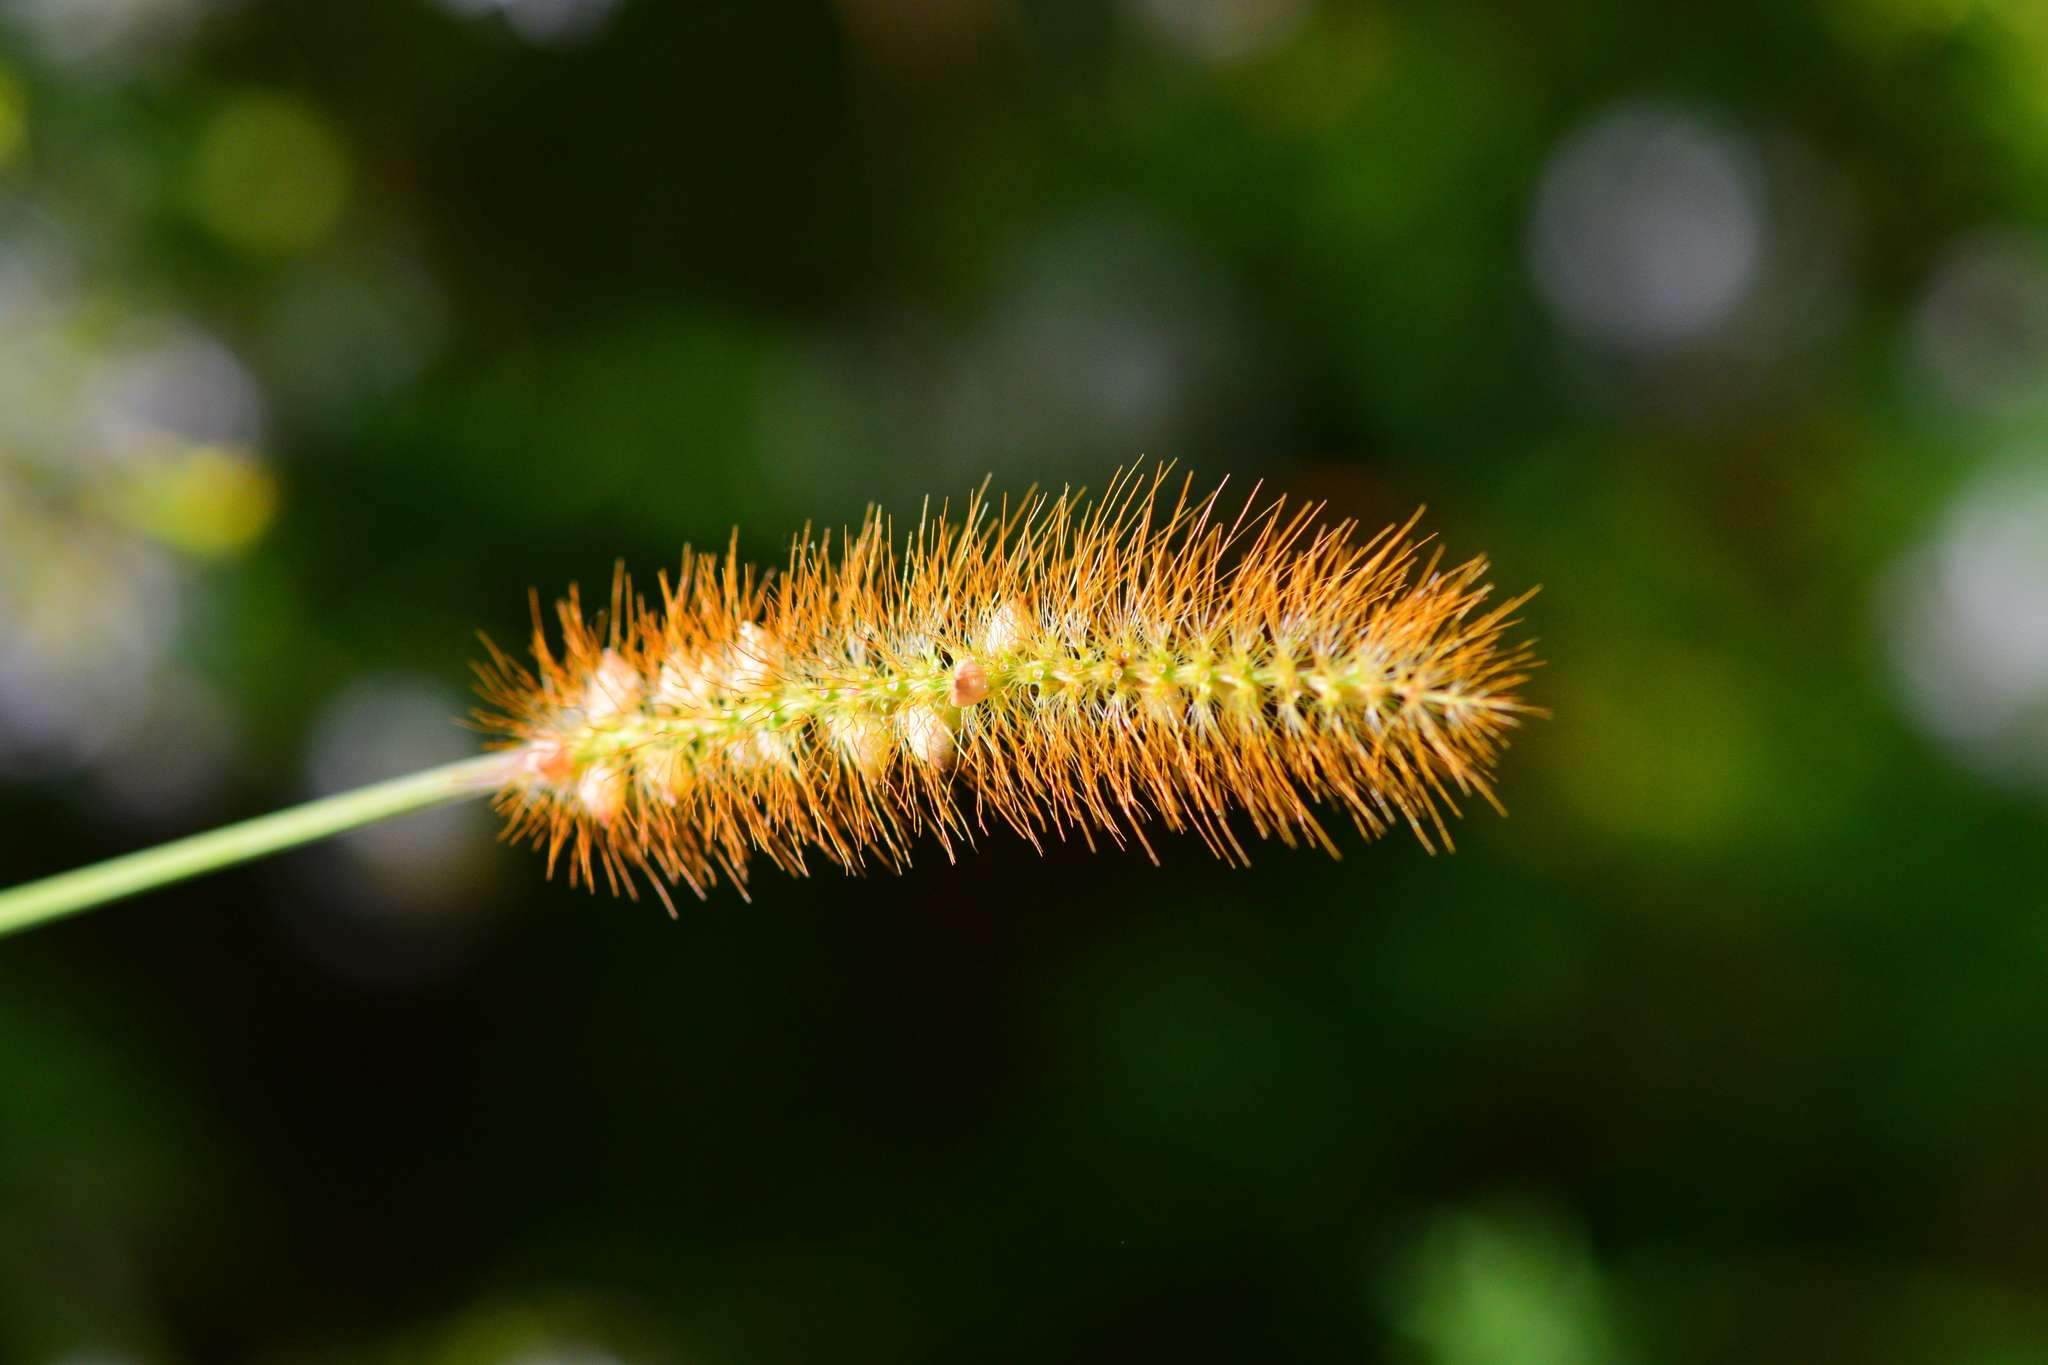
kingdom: Plantae
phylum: Tracheophyta
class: Liliopsida
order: Poales
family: Poaceae
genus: Setaria
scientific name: Setaria pumila
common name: Yellow bristle-grass
